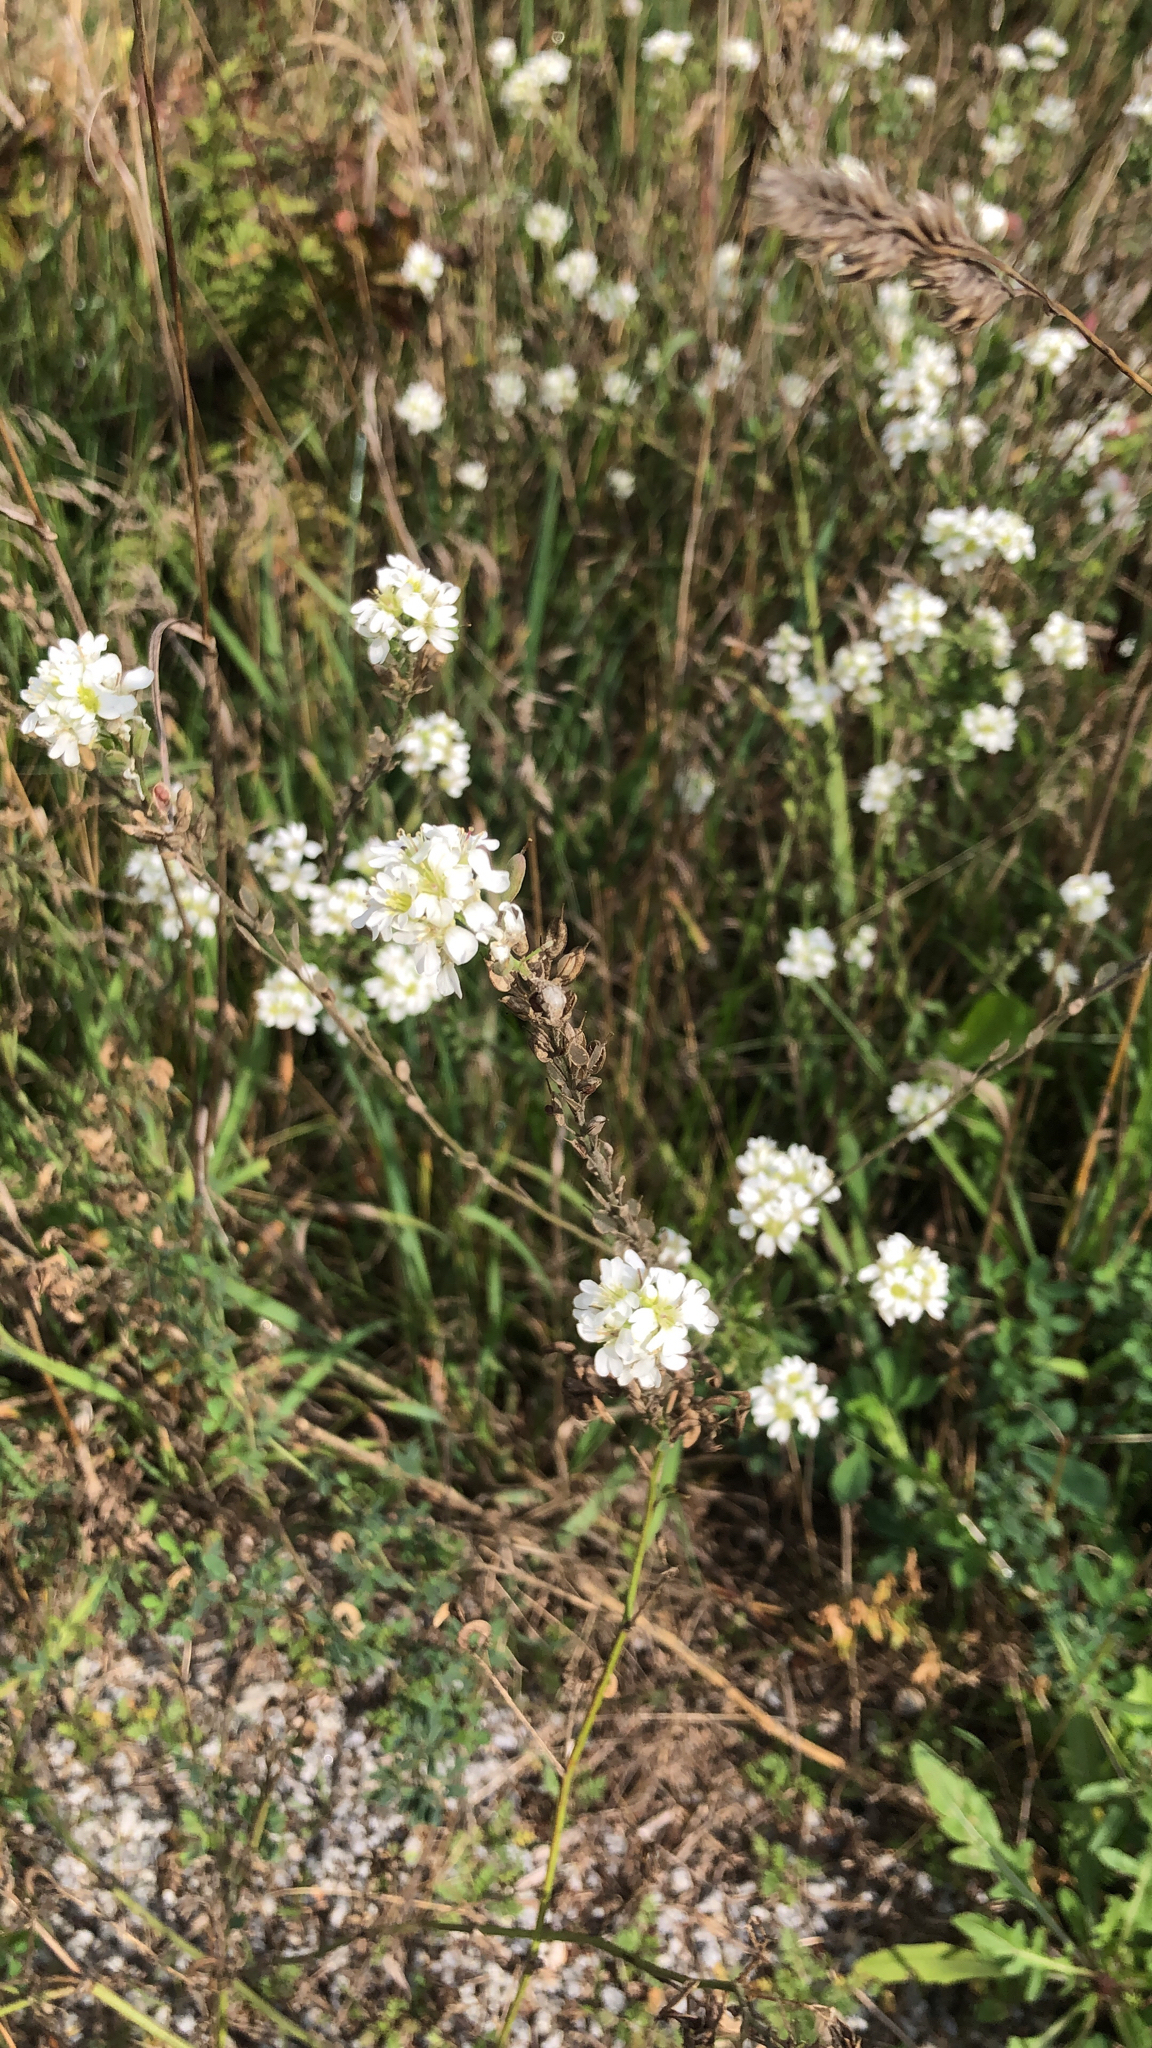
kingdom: Plantae
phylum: Tracheophyta
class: Magnoliopsida
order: Brassicales
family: Brassicaceae
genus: Berteroa
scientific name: Berteroa incana
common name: Hoary alison
